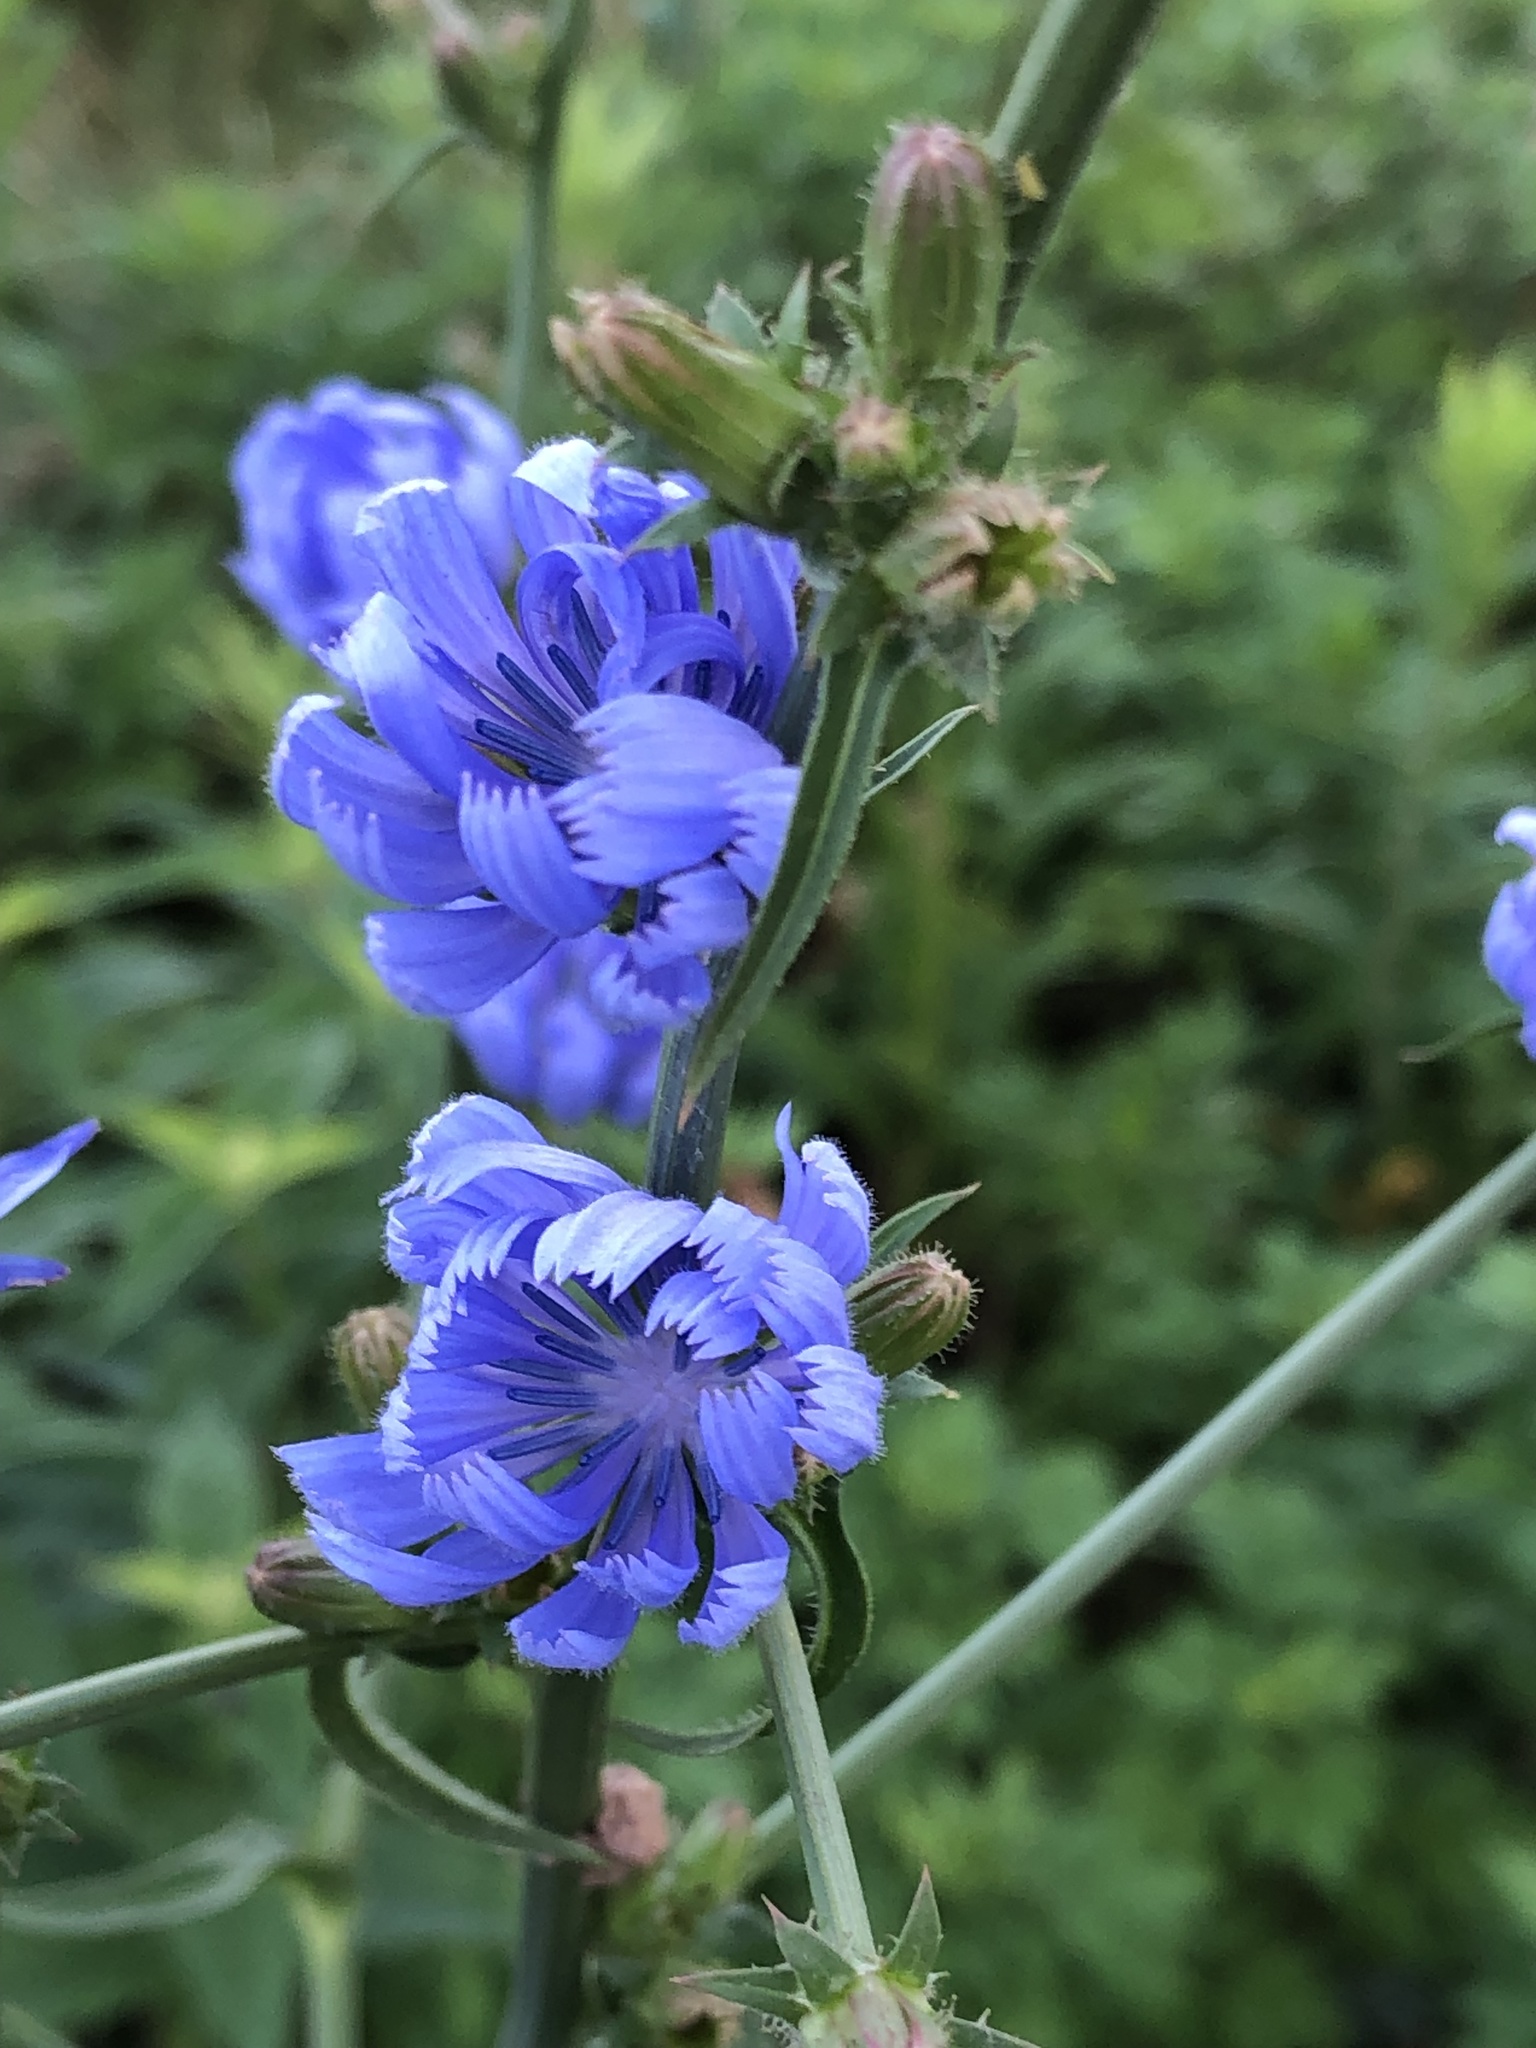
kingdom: Plantae
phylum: Tracheophyta
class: Magnoliopsida
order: Asterales
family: Asteraceae
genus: Cichorium
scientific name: Cichorium intybus
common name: Chicory
